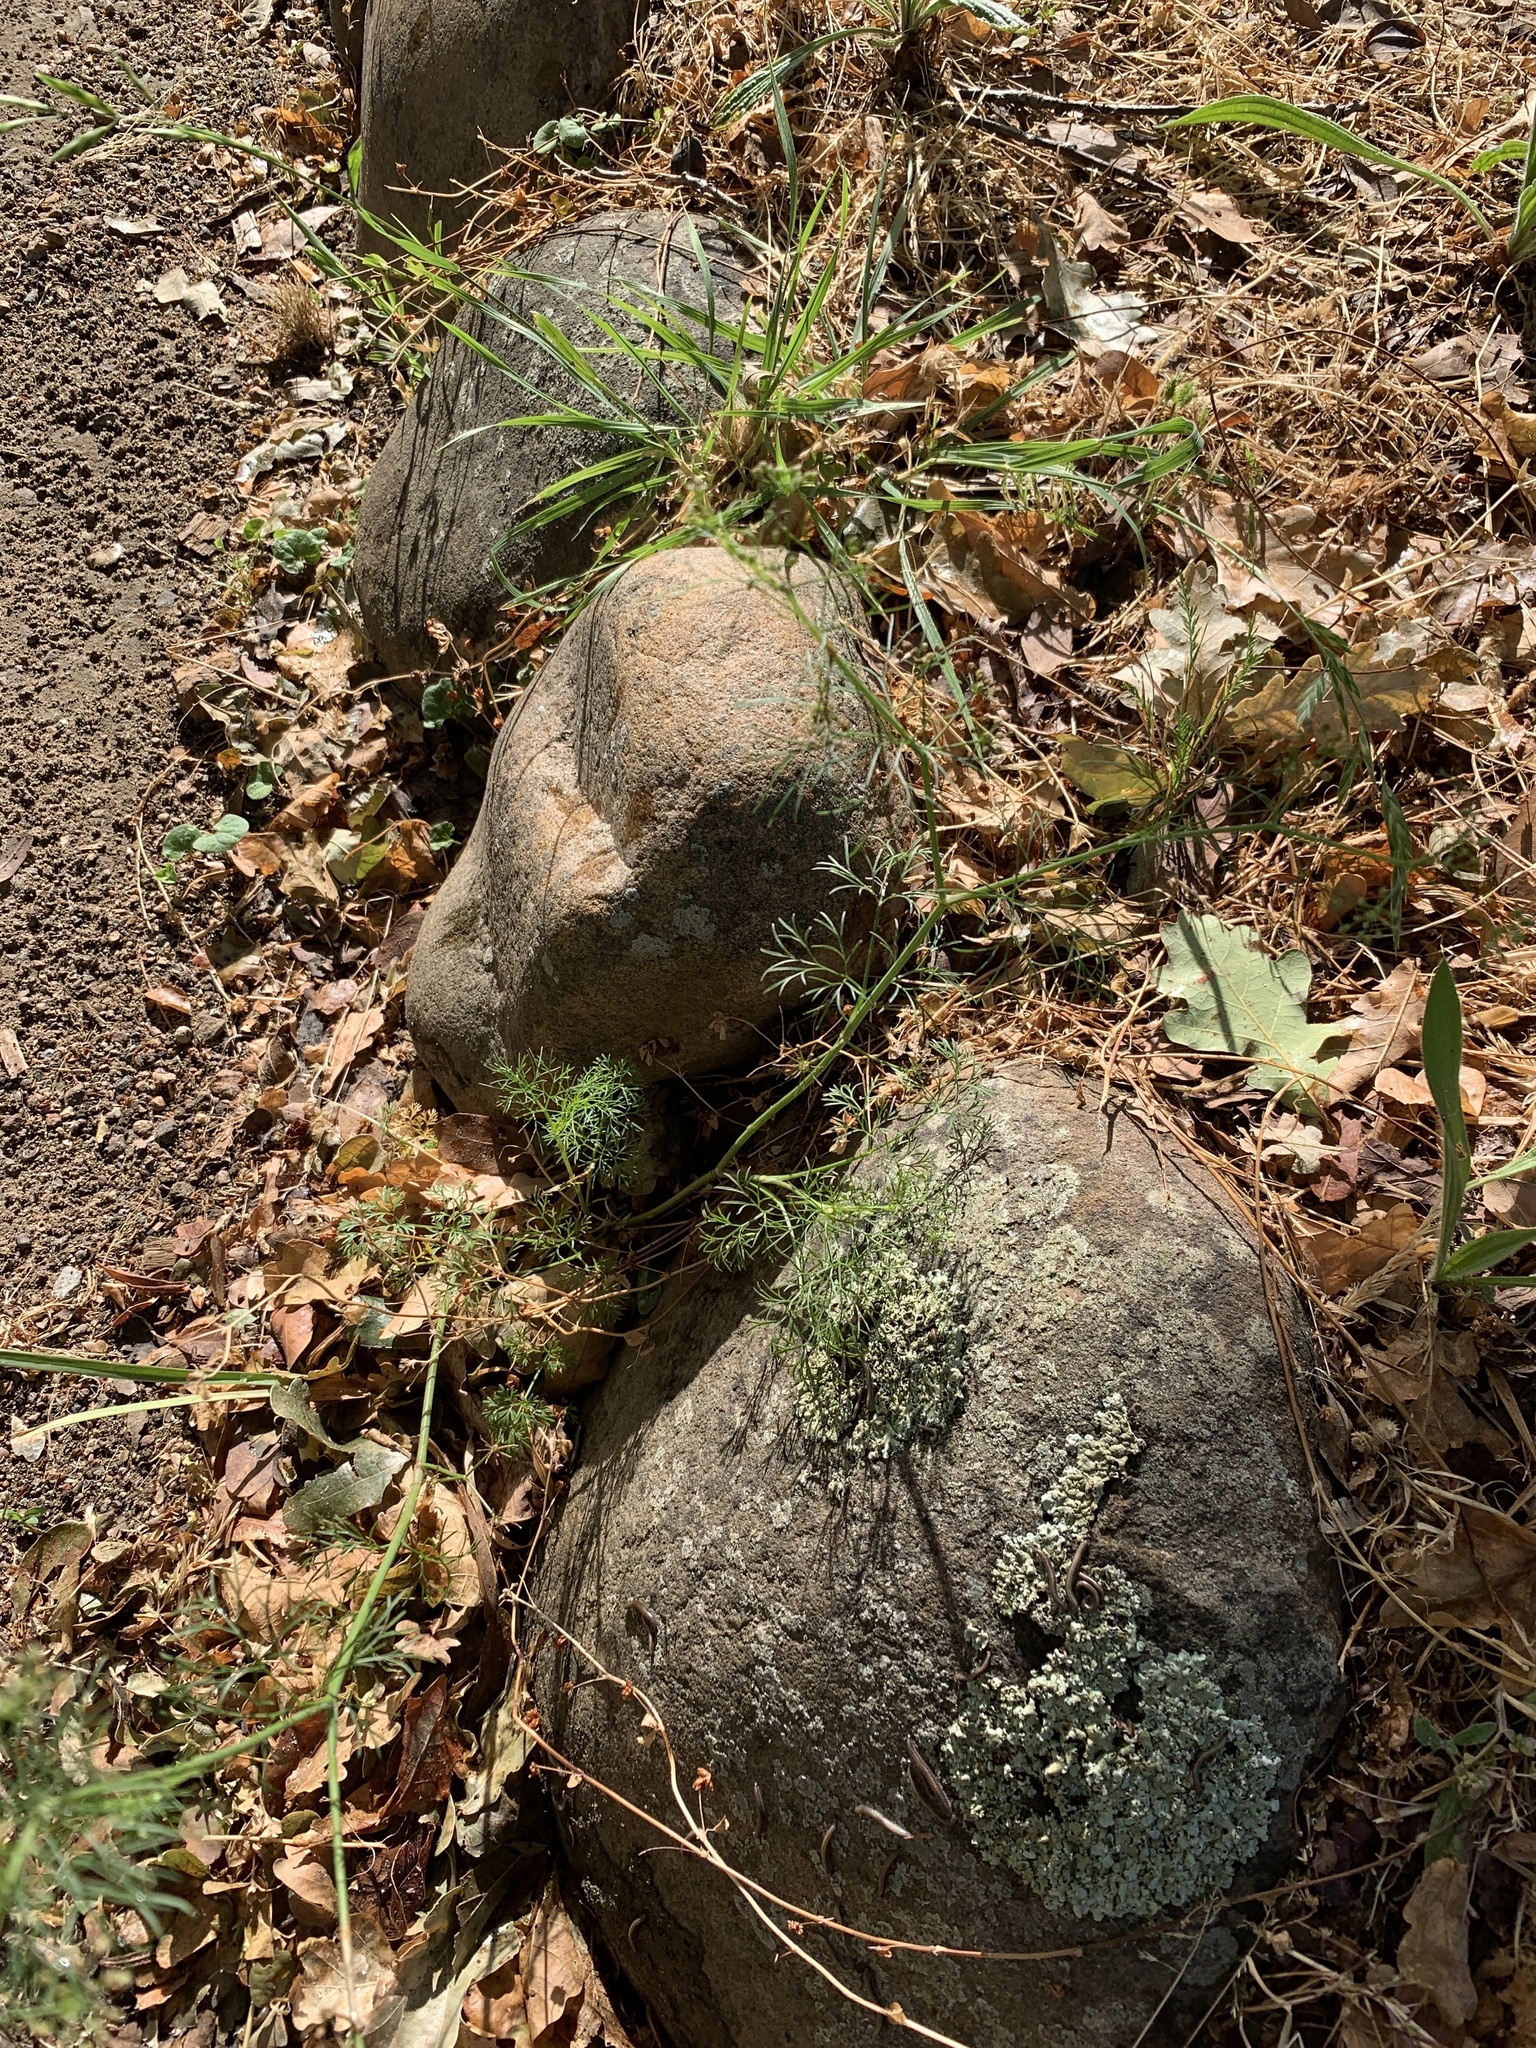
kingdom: Plantae
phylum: Tracheophyta
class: Magnoliopsida
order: Apiales
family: Apiaceae
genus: Cyclospermum
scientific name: Cyclospermum leptophyllum
